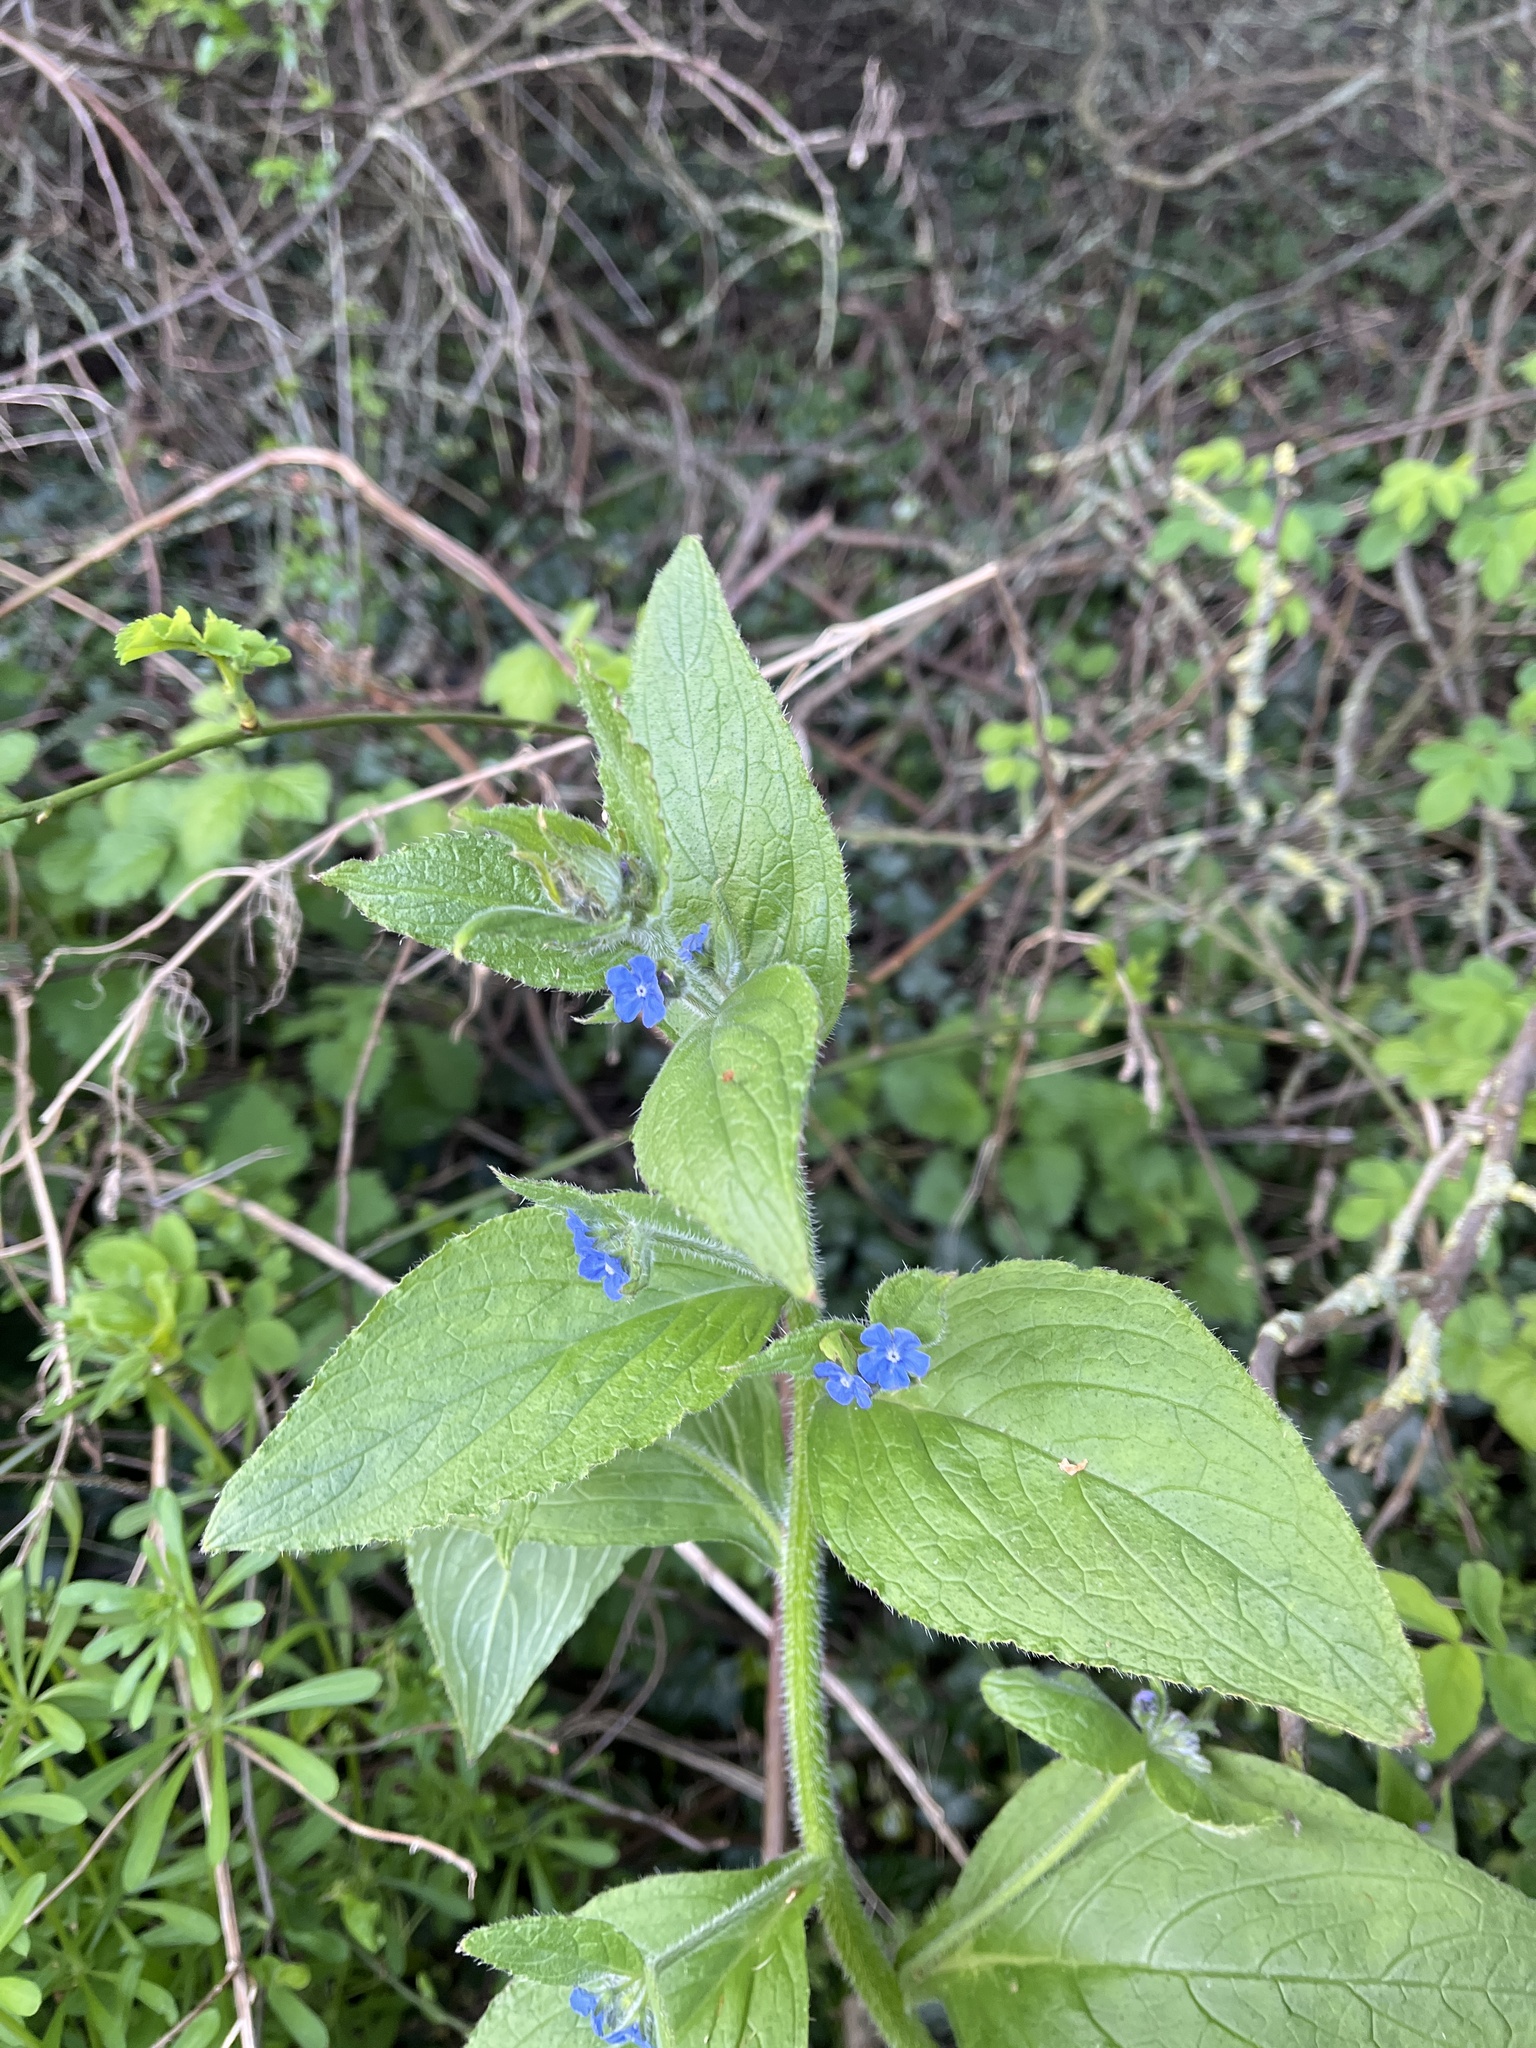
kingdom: Plantae
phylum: Tracheophyta
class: Magnoliopsida
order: Boraginales
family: Boraginaceae
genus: Pentaglottis
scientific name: Pentaglottis sempervirens
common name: Green alkanet
